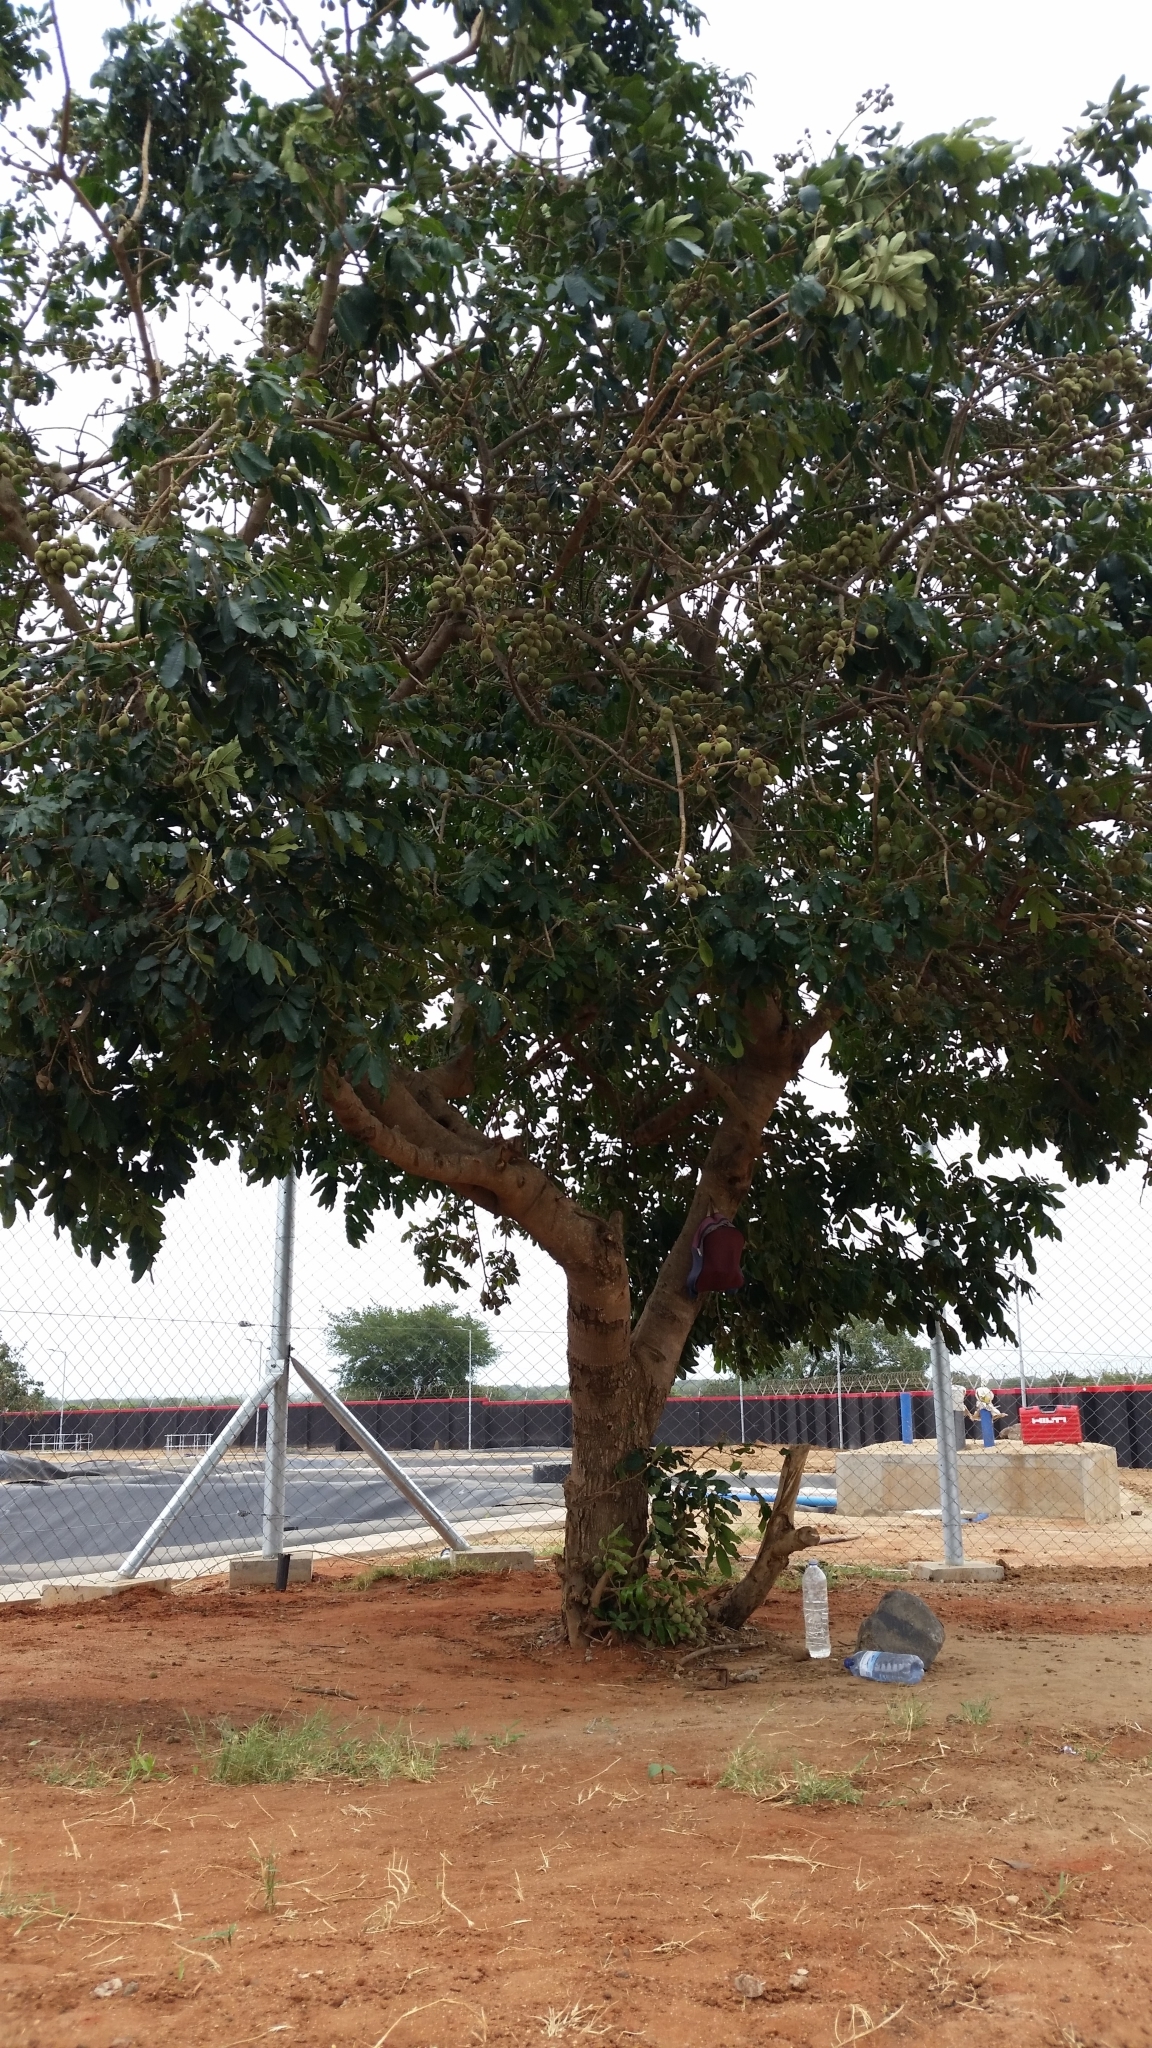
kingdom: Plantae
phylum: Tracheophyta
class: Magnoliopsida
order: Sapindales
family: Meliaceae
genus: Trichilia
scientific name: Trichilia emetica
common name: Christmas-bells
